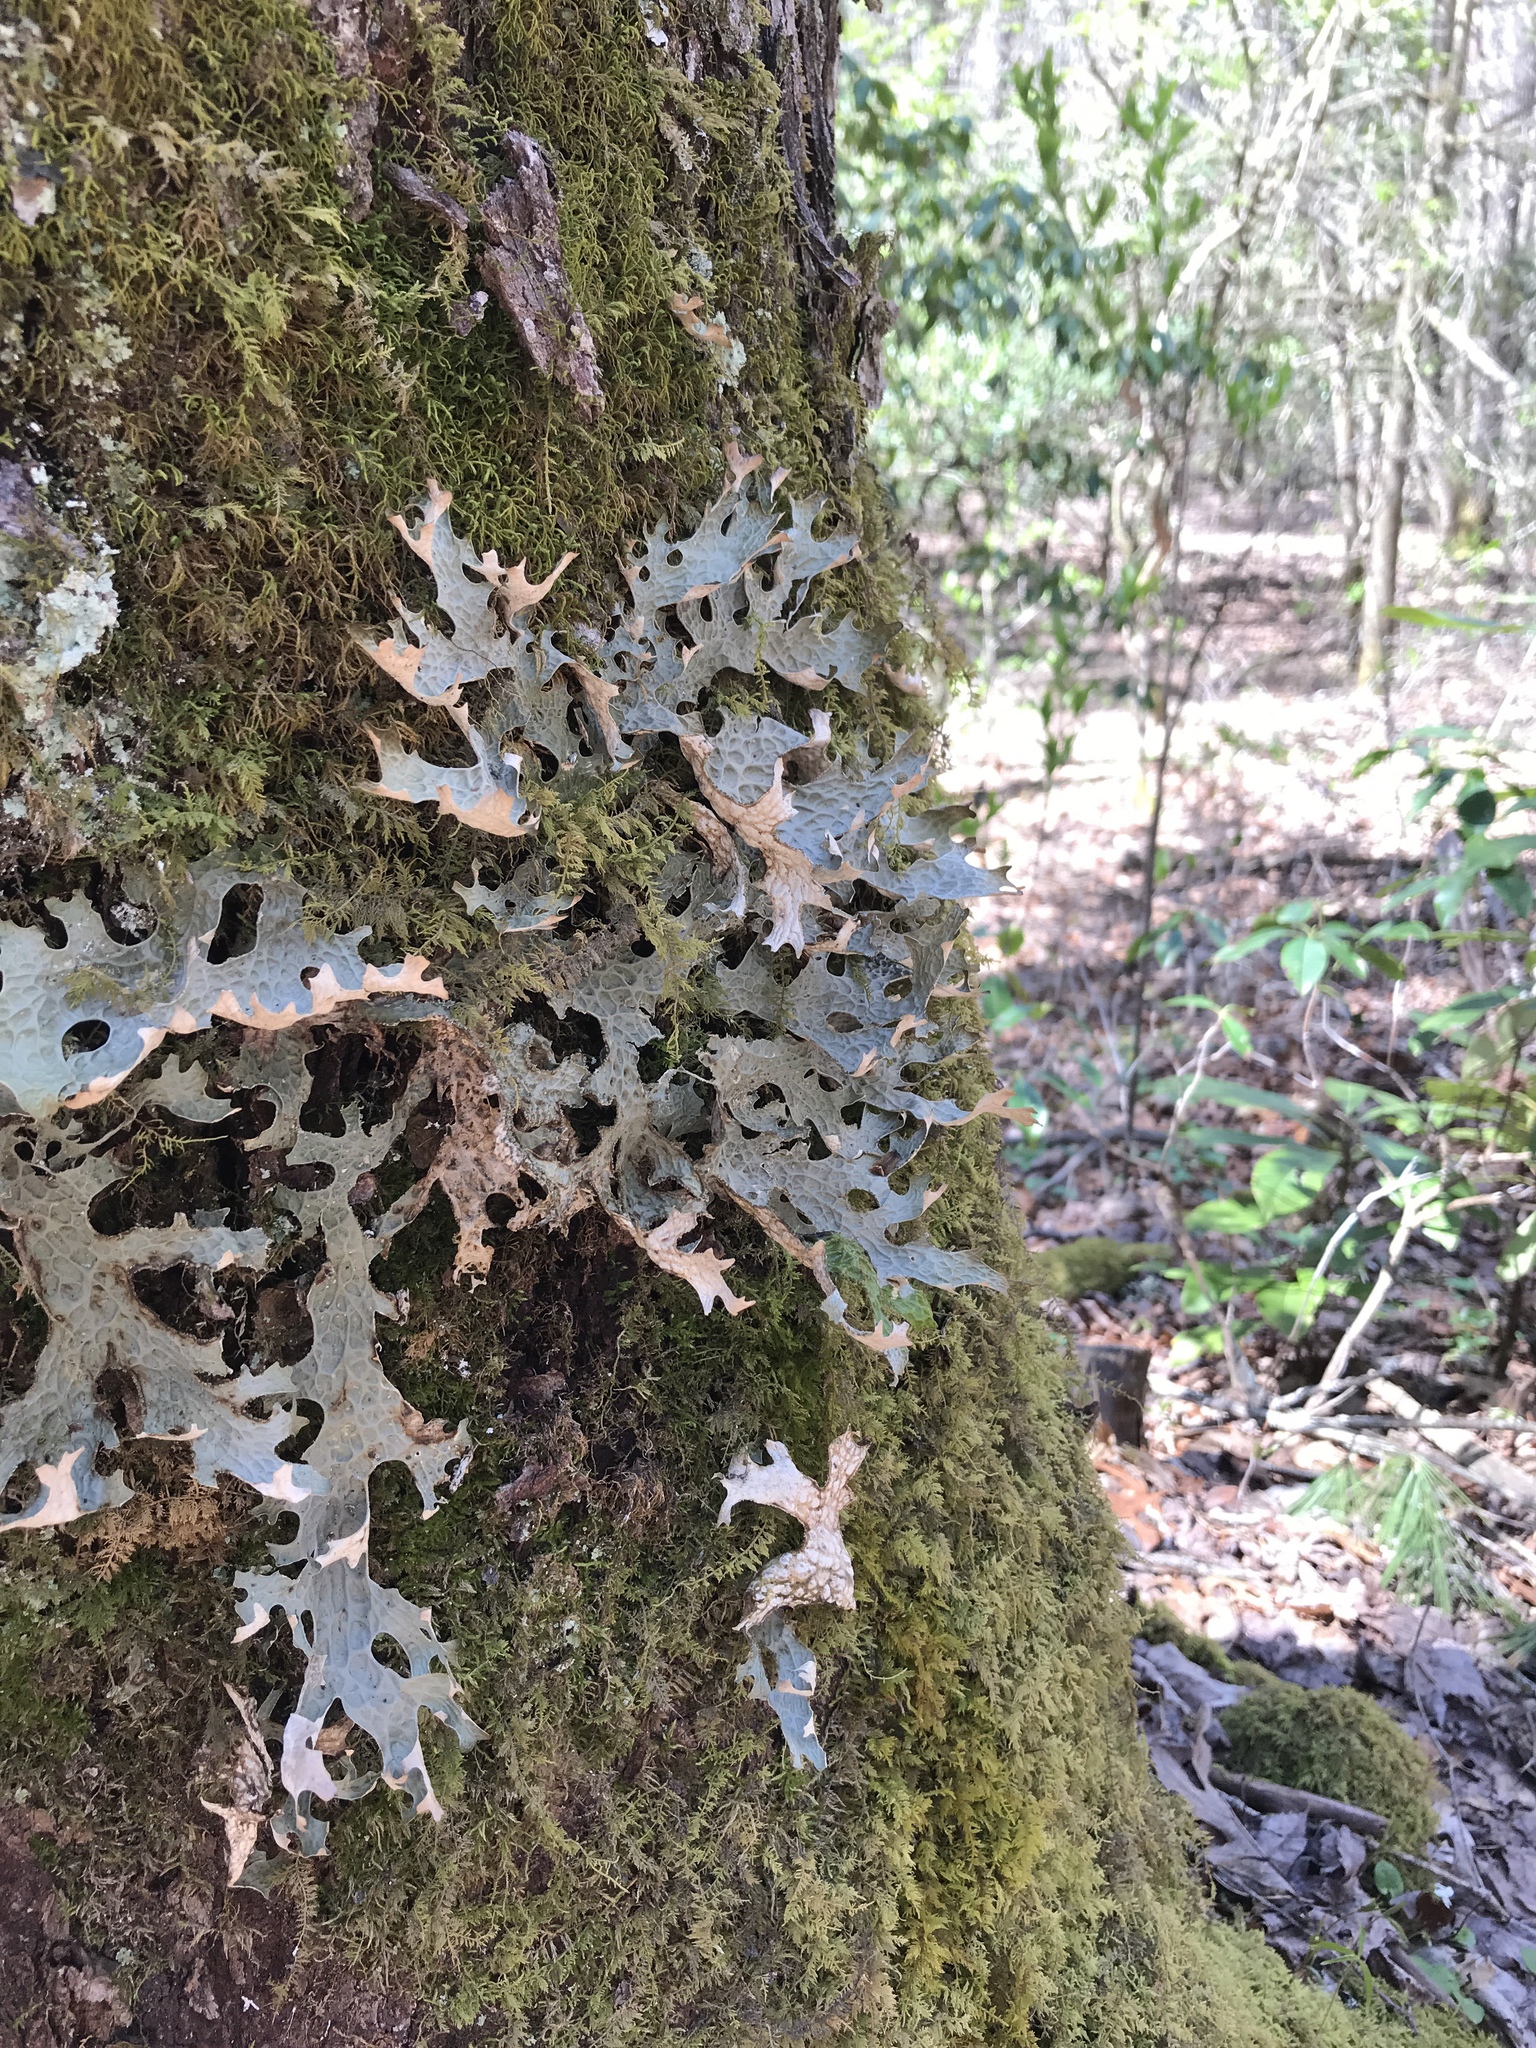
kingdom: Fungi
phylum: Ascomycota
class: Lecanoromycetes
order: Peltigerales
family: Lobariaceae
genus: Lobaria
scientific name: Lobaria pulmonaria
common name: Lungwort
